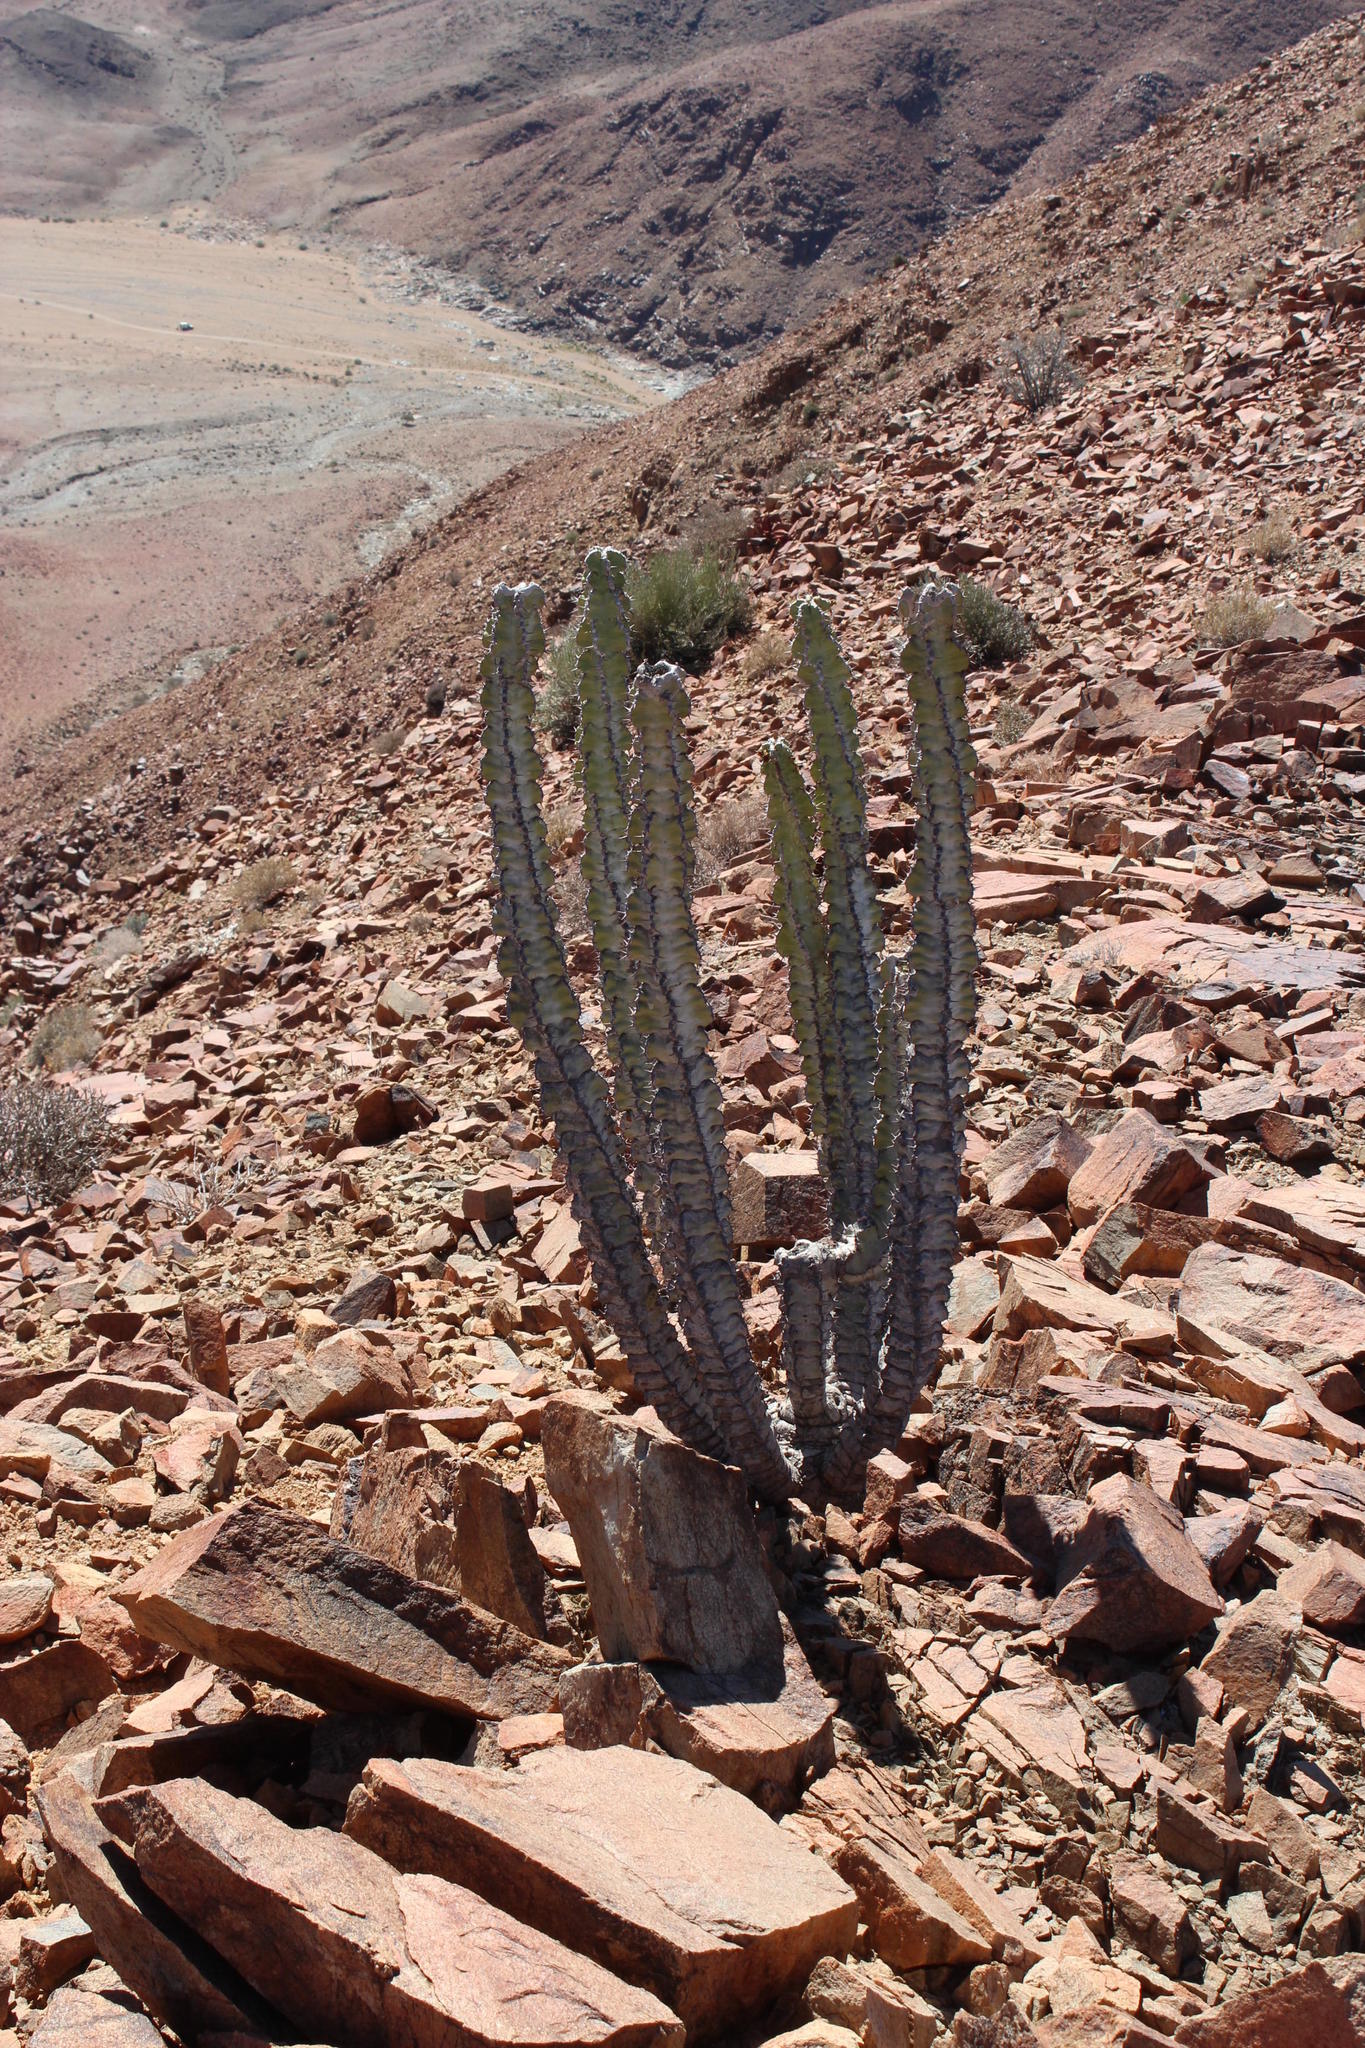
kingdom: Plantae
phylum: Tracheophyta
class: Magnoliopsida
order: Malpighiales
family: Euphorbiaceae
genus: Euphorbia
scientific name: Euphorbia virosa
